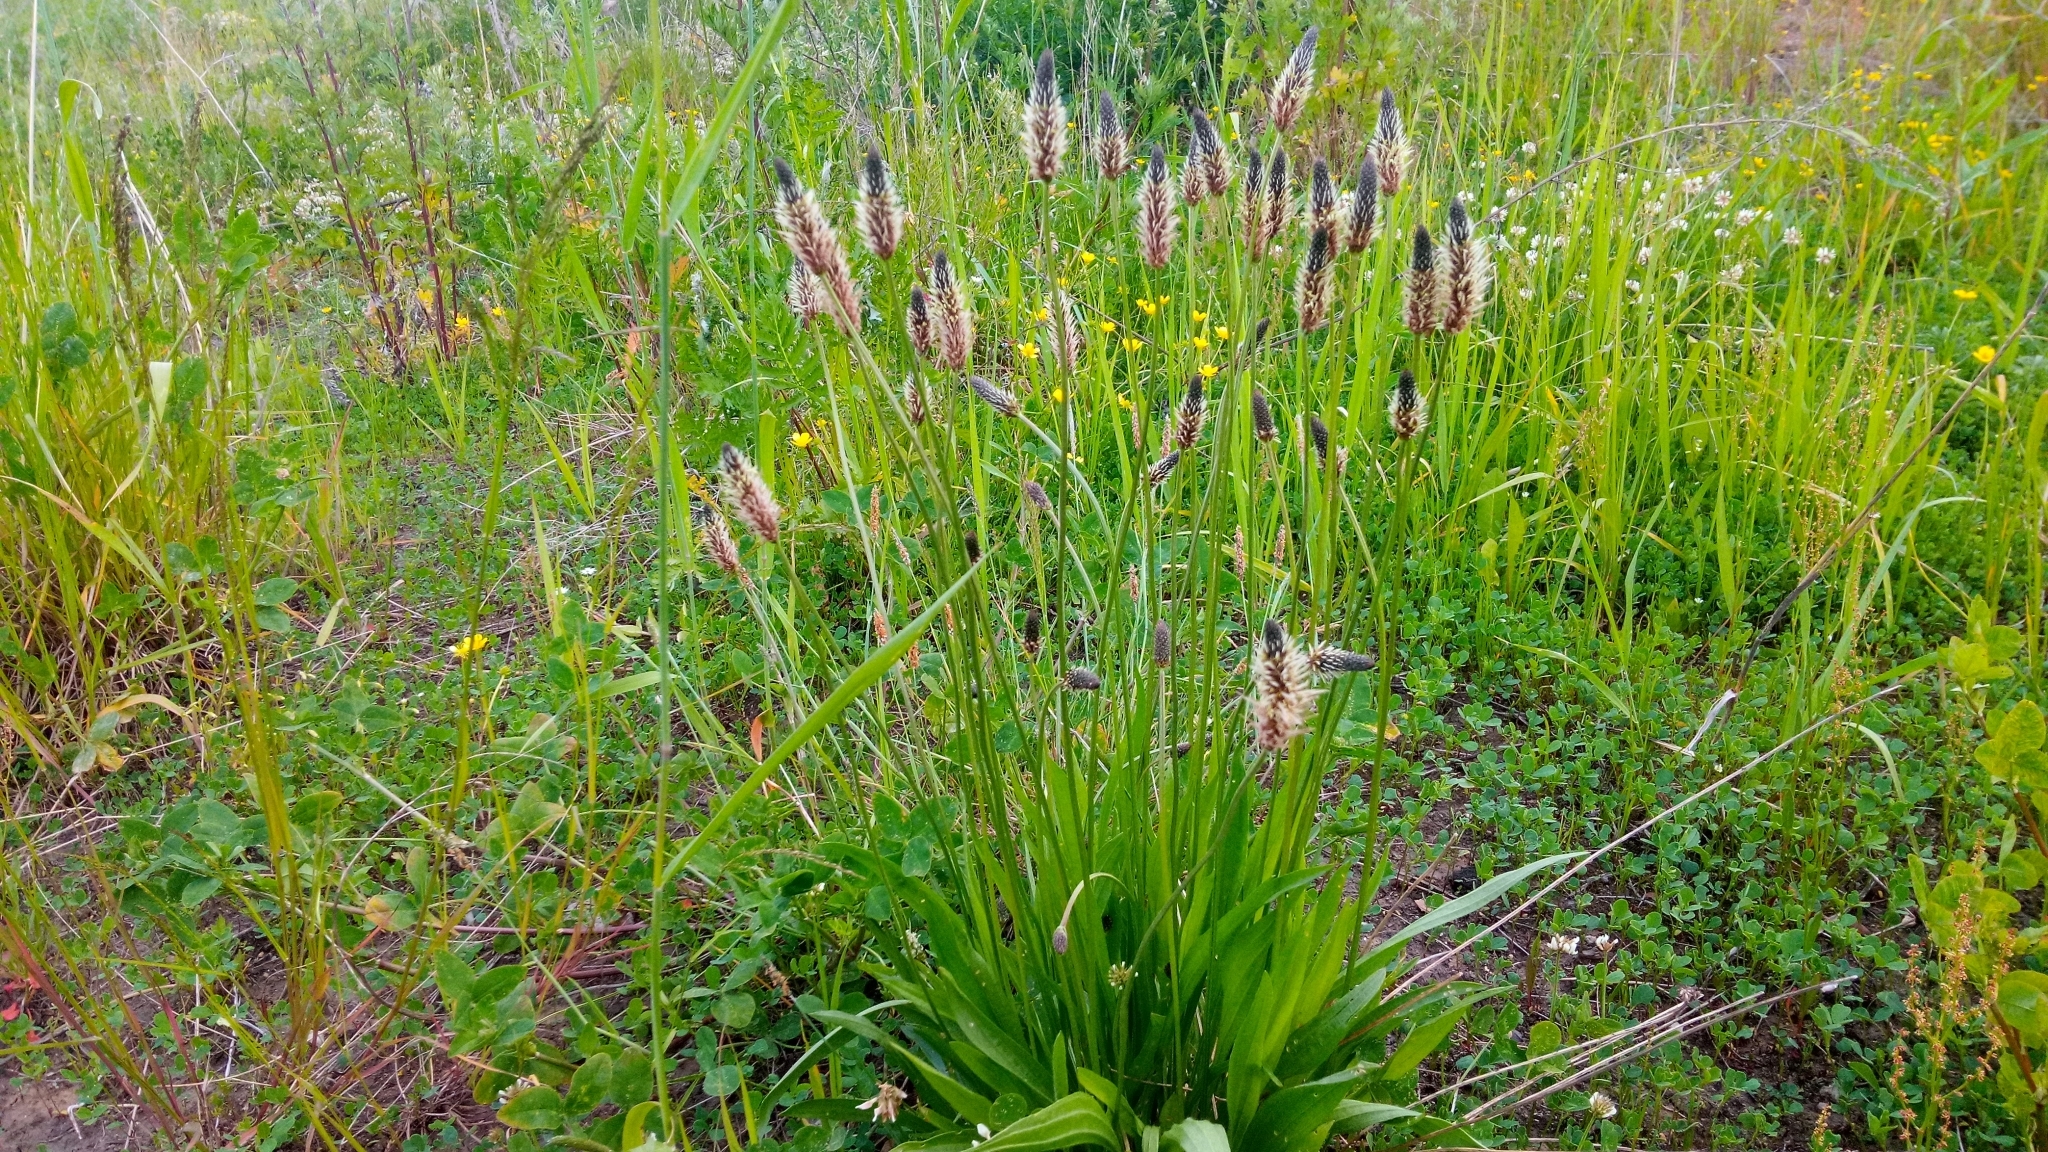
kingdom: Plantae
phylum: Tracheophyta
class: Magnoliopsida
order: Lamiales
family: Plantaginaceae
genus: Plantago
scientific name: Plantago lanceolata
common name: Ribwort plantain
